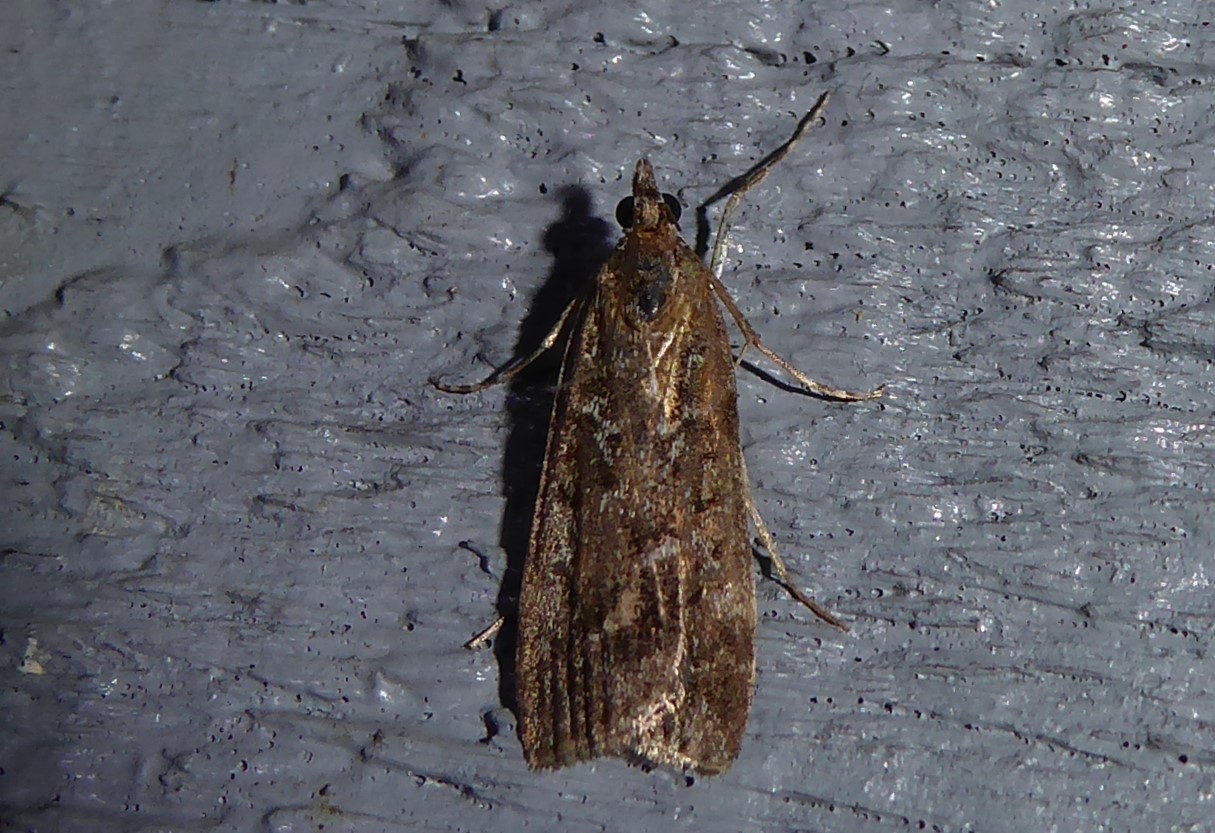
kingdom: Animalia
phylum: Arthropoda
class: Insecta
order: Lepidoptera
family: Crambidae
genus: Eudonia
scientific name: Eudonia submarginalis
